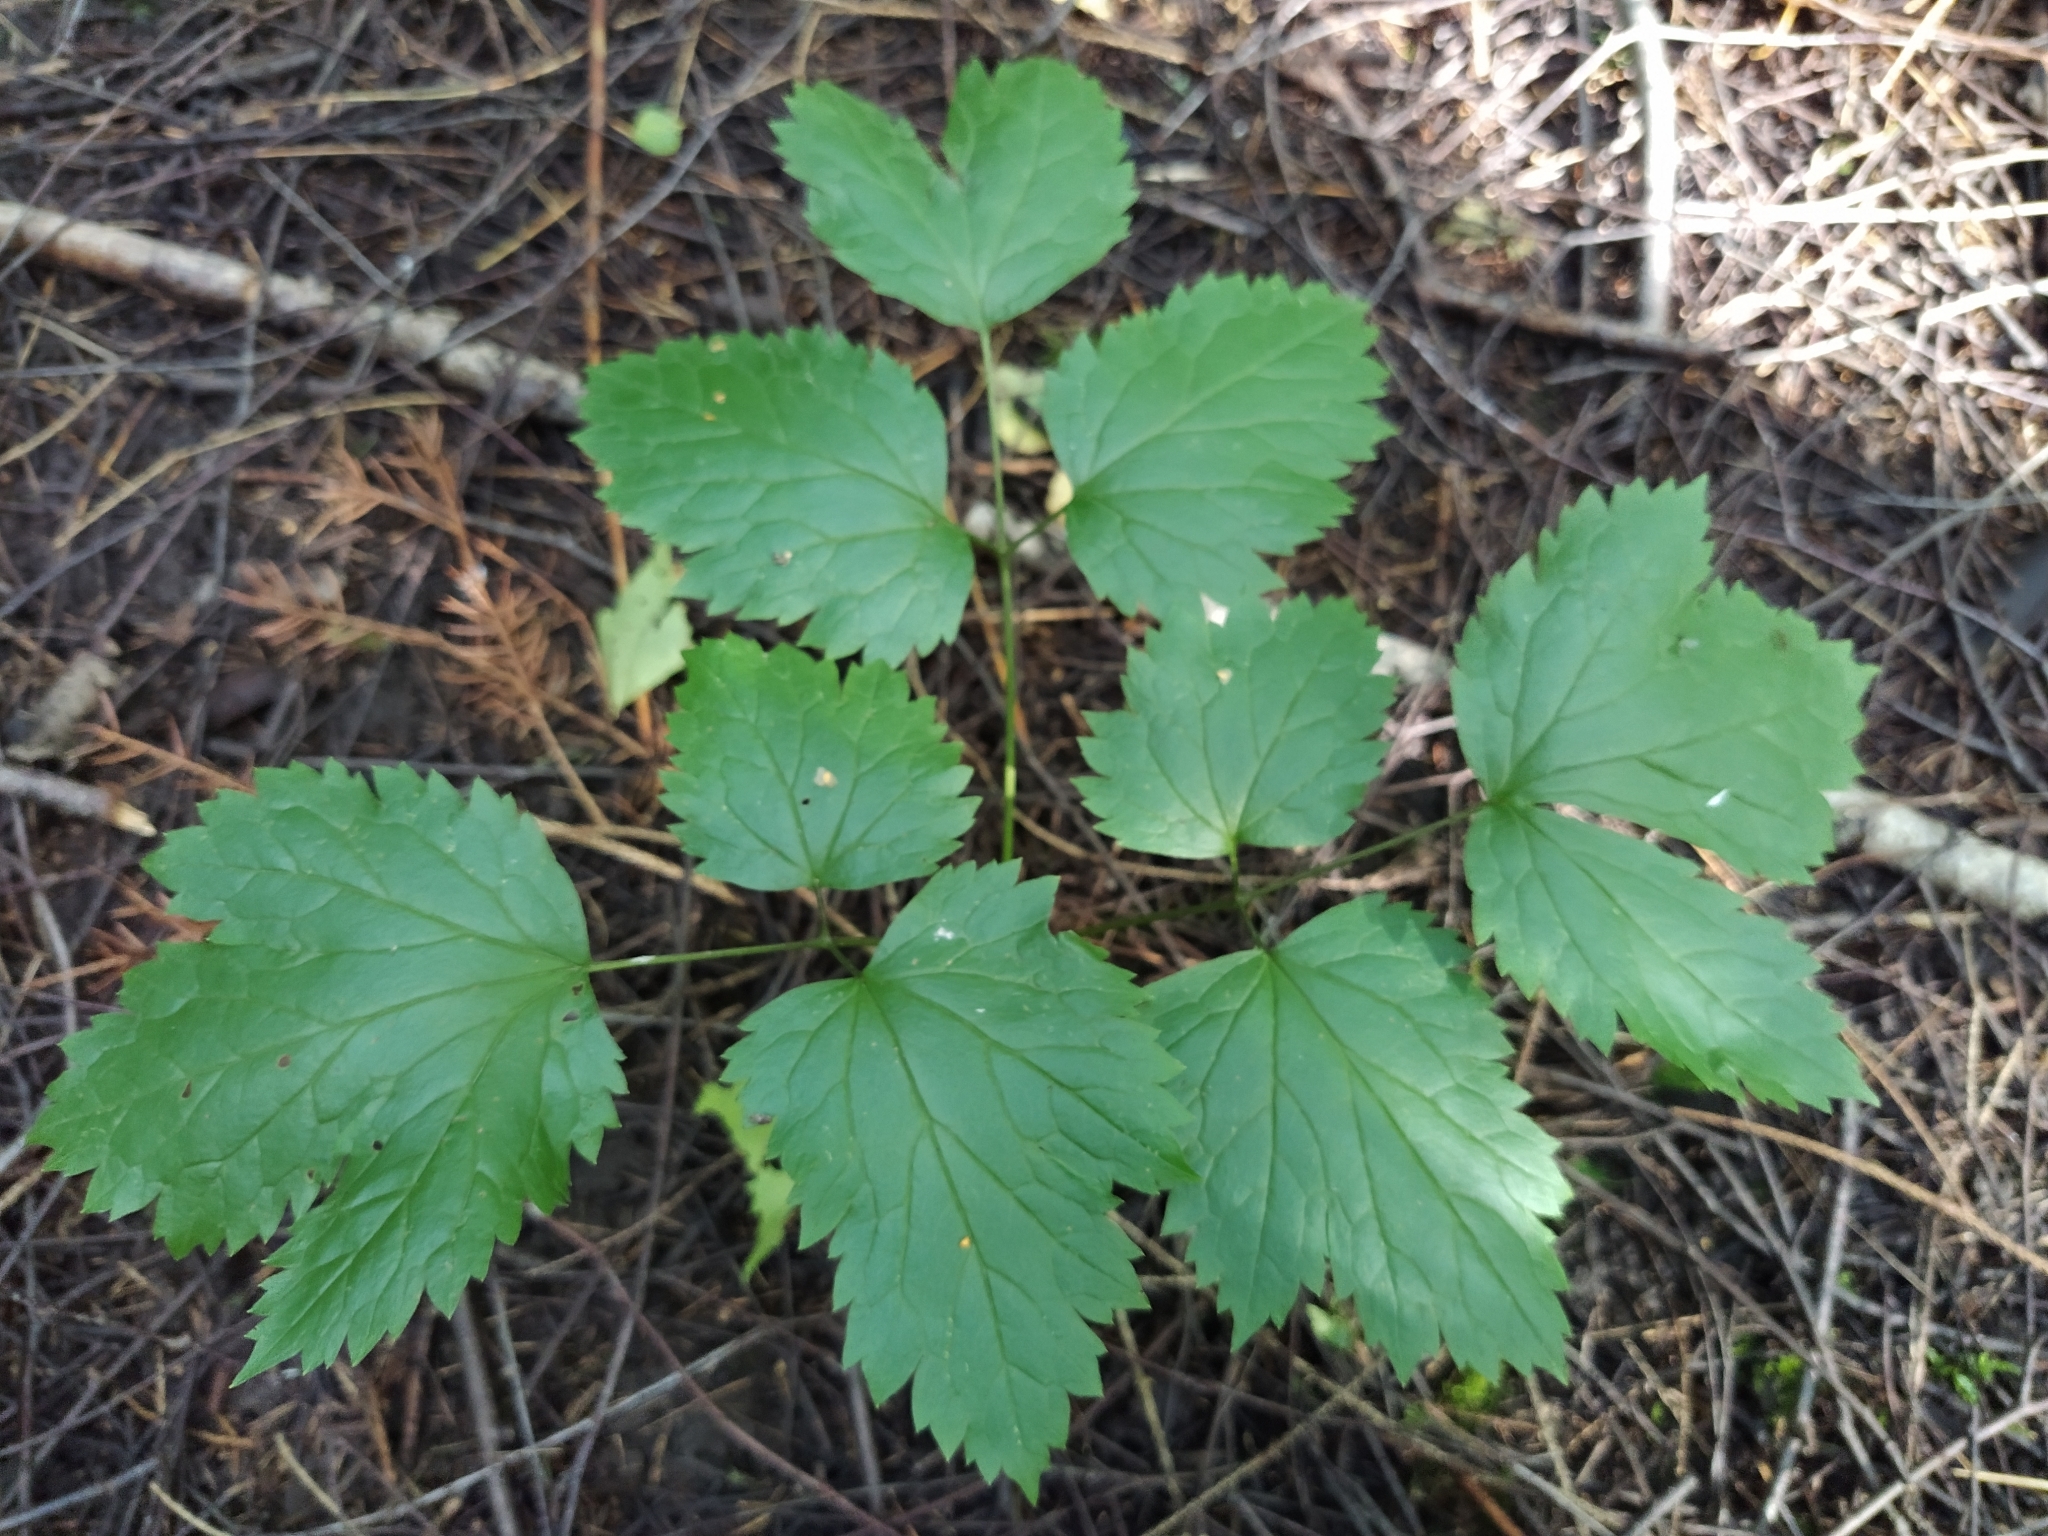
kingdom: Plantae
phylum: Tracheophyta
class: Magnoliopsida
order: Ranunculales
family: Ranunculaceae
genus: Actaea
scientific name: Actaea spicata
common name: Baneberry
